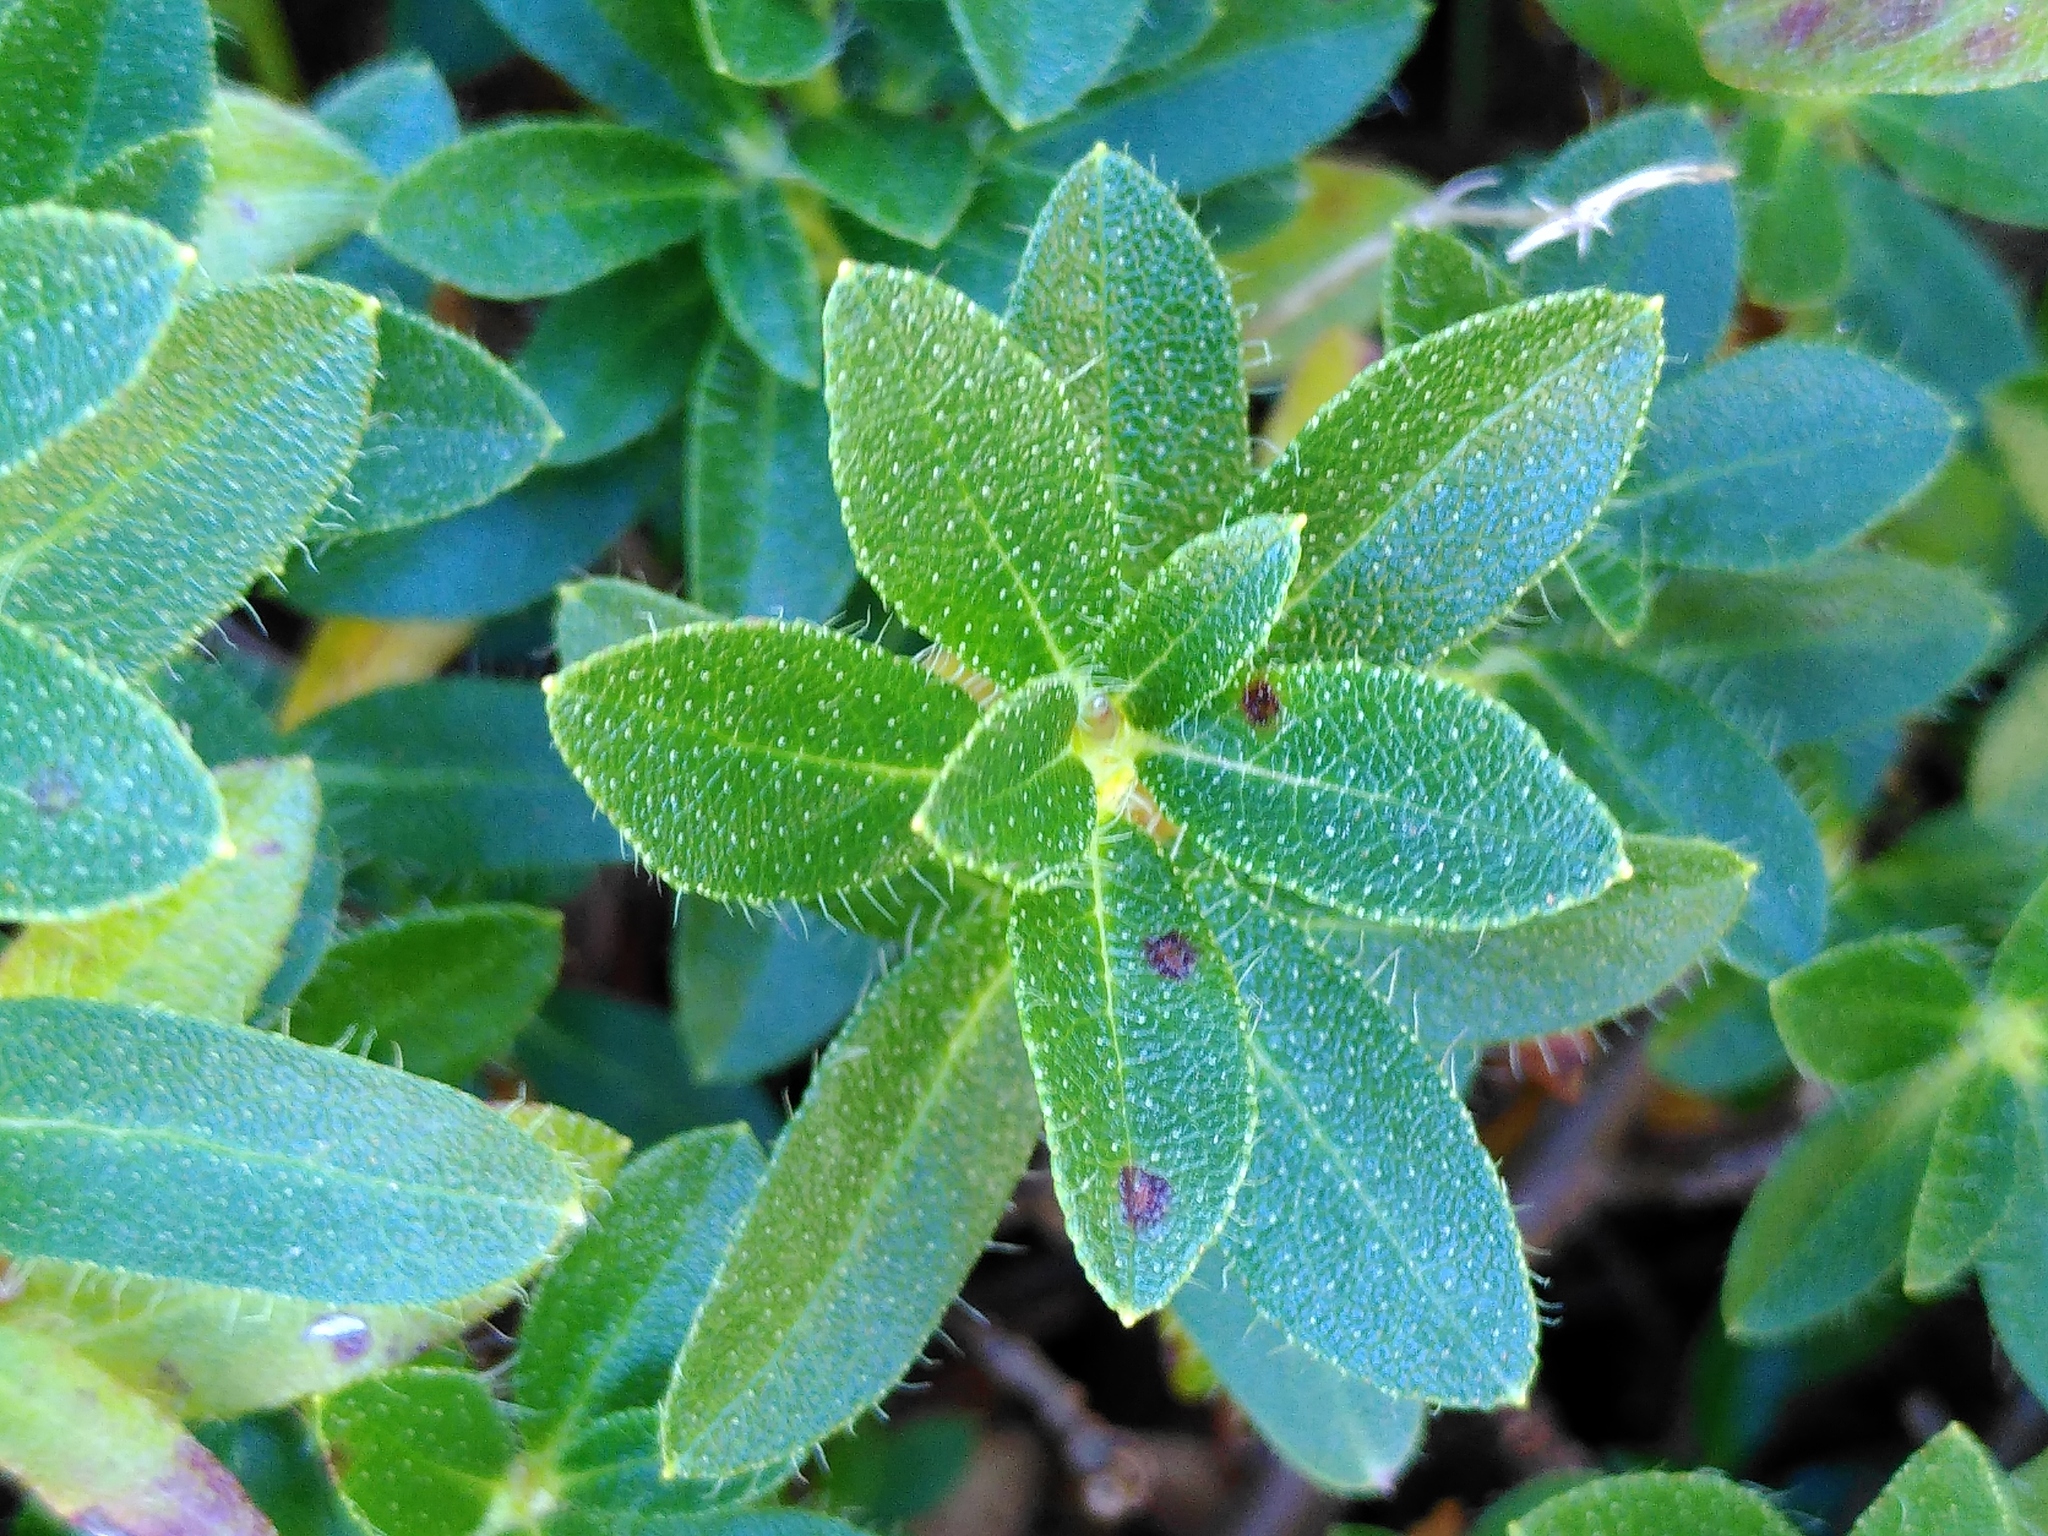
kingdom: Plantae
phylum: Tracheophyta
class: Magnoliopsida
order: Ericales
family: Ericaceae
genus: Rhododendron
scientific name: Rhododendron hirsutum
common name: Hairy alpenrose
